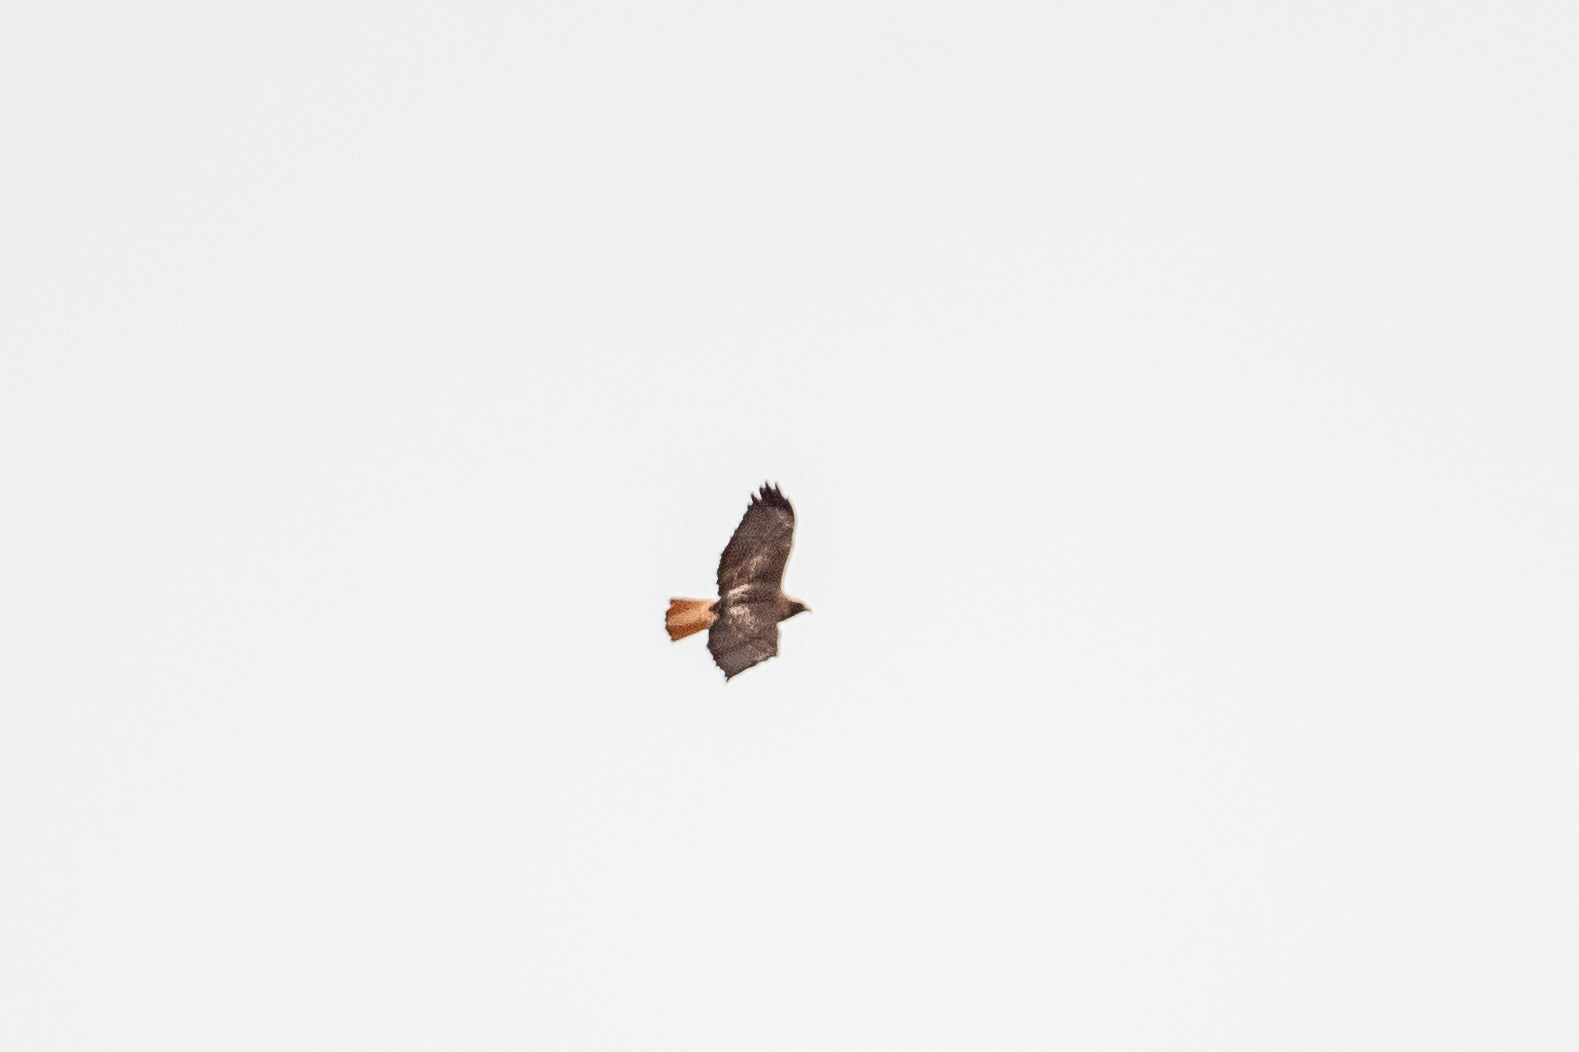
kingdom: Animalia
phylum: Chordata
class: Aves
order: Accipitriformes
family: Accipitridae
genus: Buteo
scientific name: Buteo jamaicensis
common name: Red-tailed hawk
